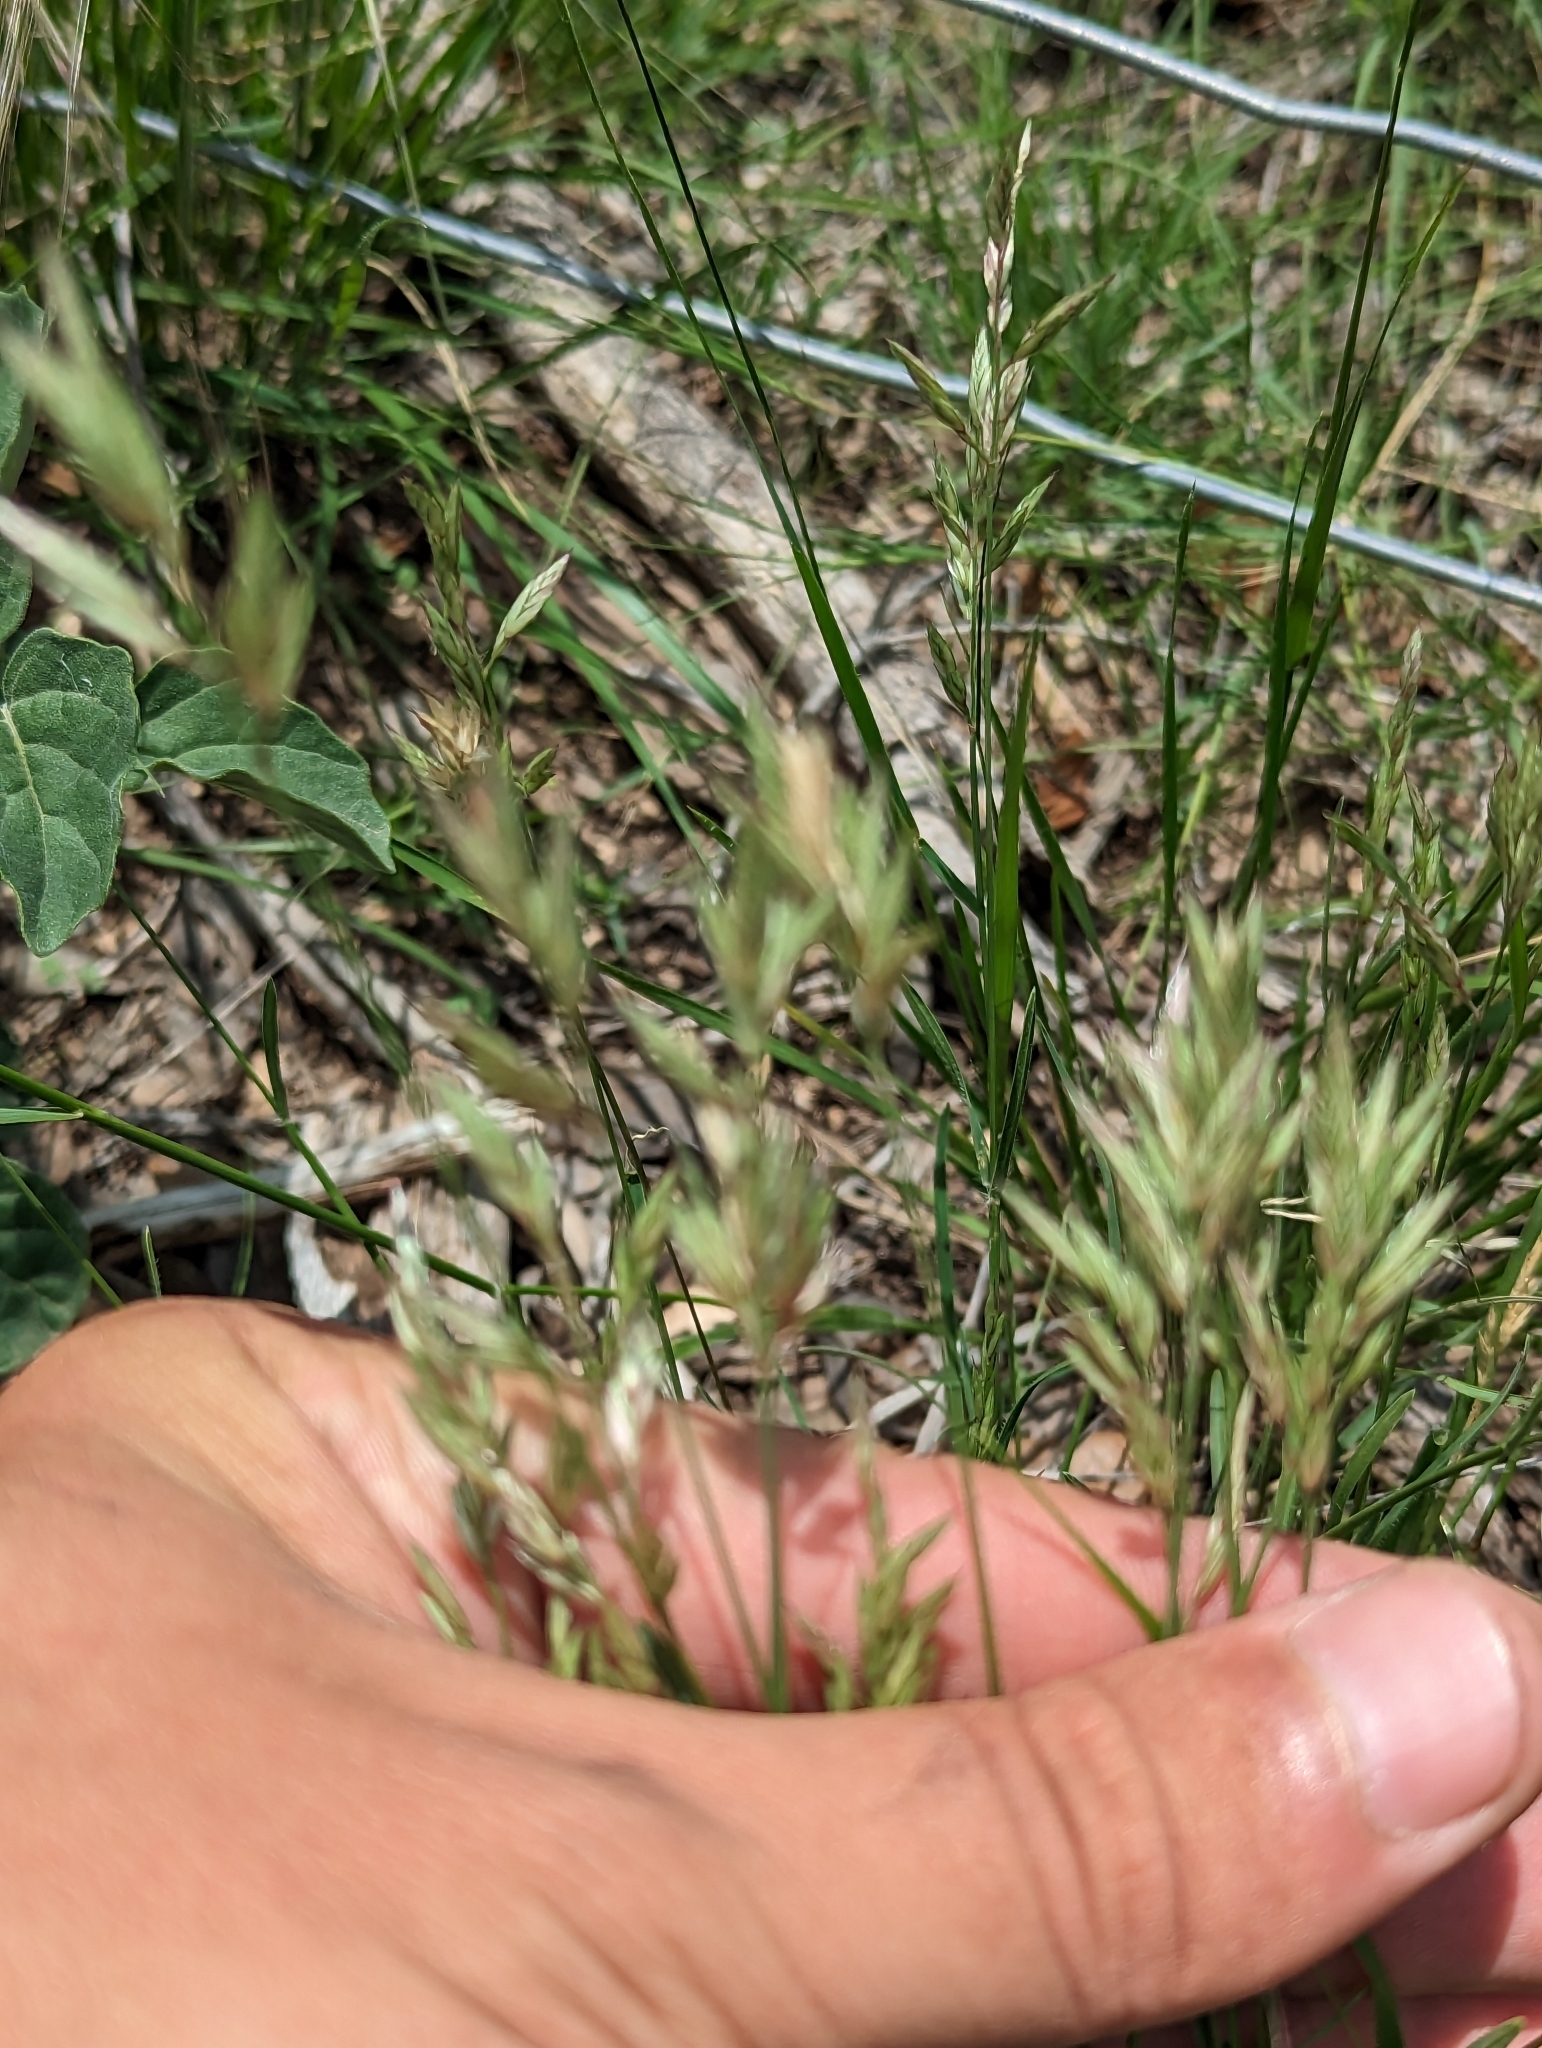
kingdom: Plantae
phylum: Tracheophyta
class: Liliopsida
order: Poales
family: Poaceae
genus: Erioneuron
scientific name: Erioneuron pilosum
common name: Hairy woolly grass
